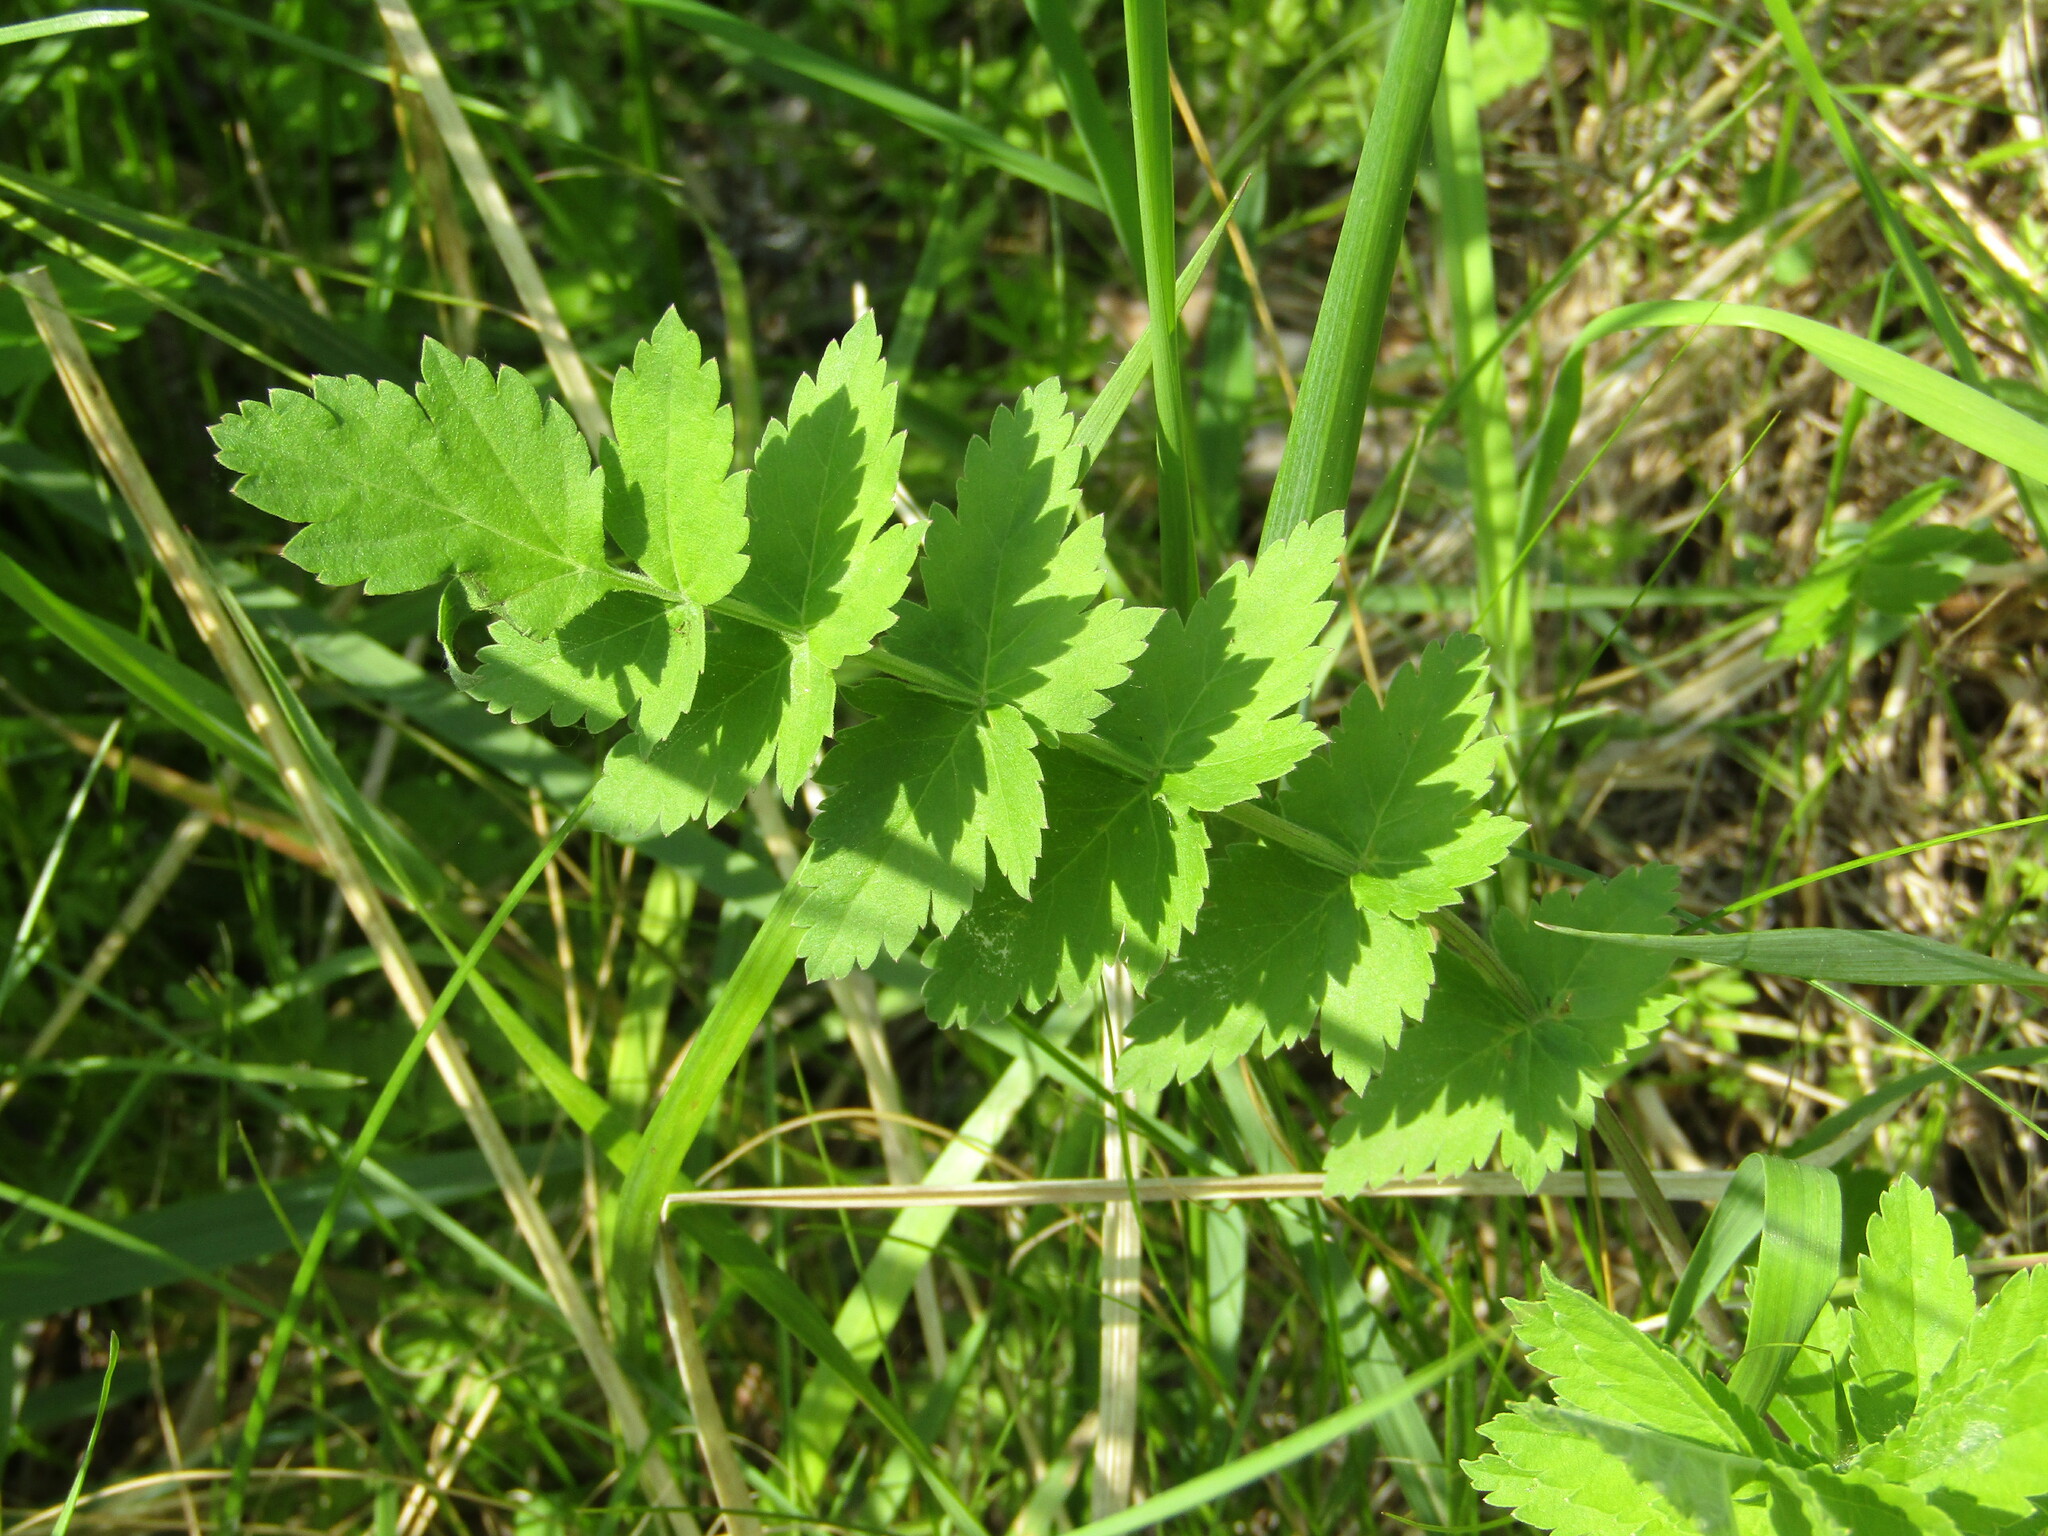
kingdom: Plantae
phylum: Tracheophyta
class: Magnoliopsida
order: Apiales
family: Apiaceae
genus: Pastinaca
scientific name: Pastinaca sativa
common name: Wild parsnip
